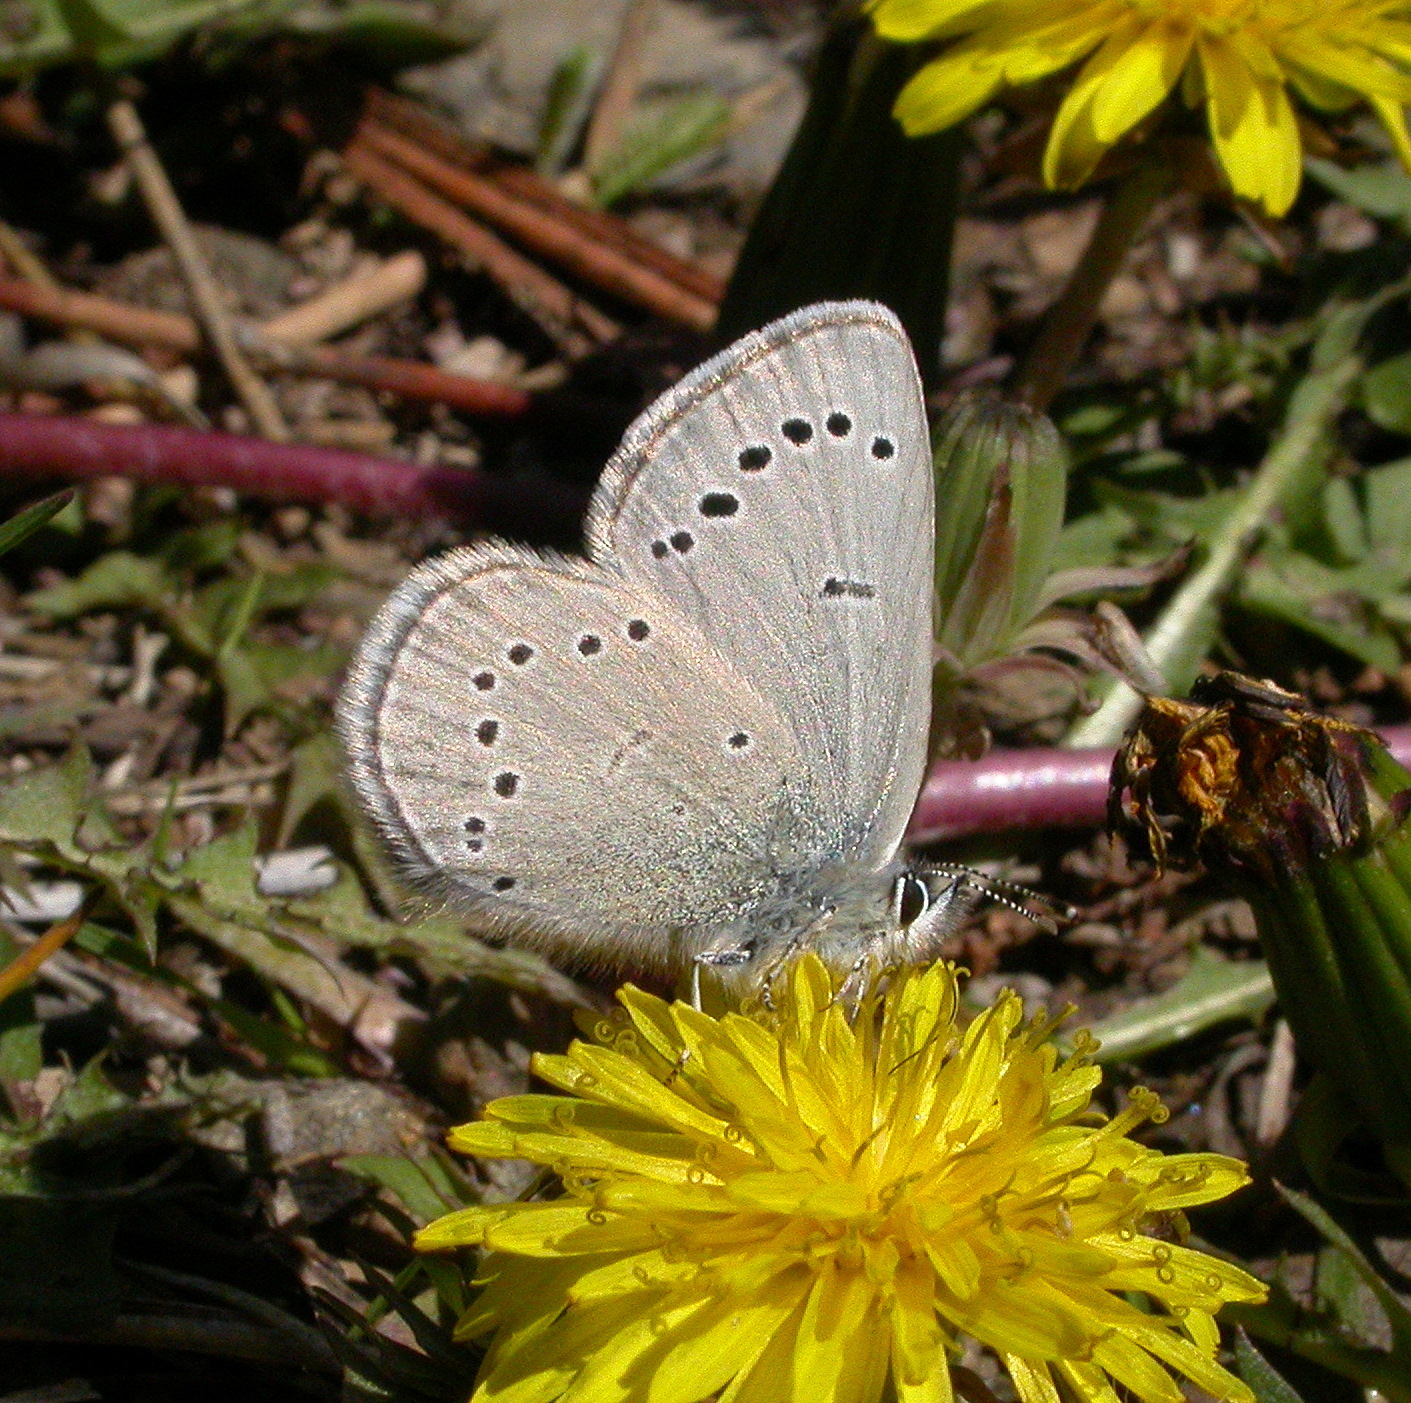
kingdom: Animalia
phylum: Arthropoda
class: Insecta
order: Lepidoptera
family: Lycaenidae
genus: Glaucopsyche
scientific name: Glaucopsyche lygdamus
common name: Silvery blue
